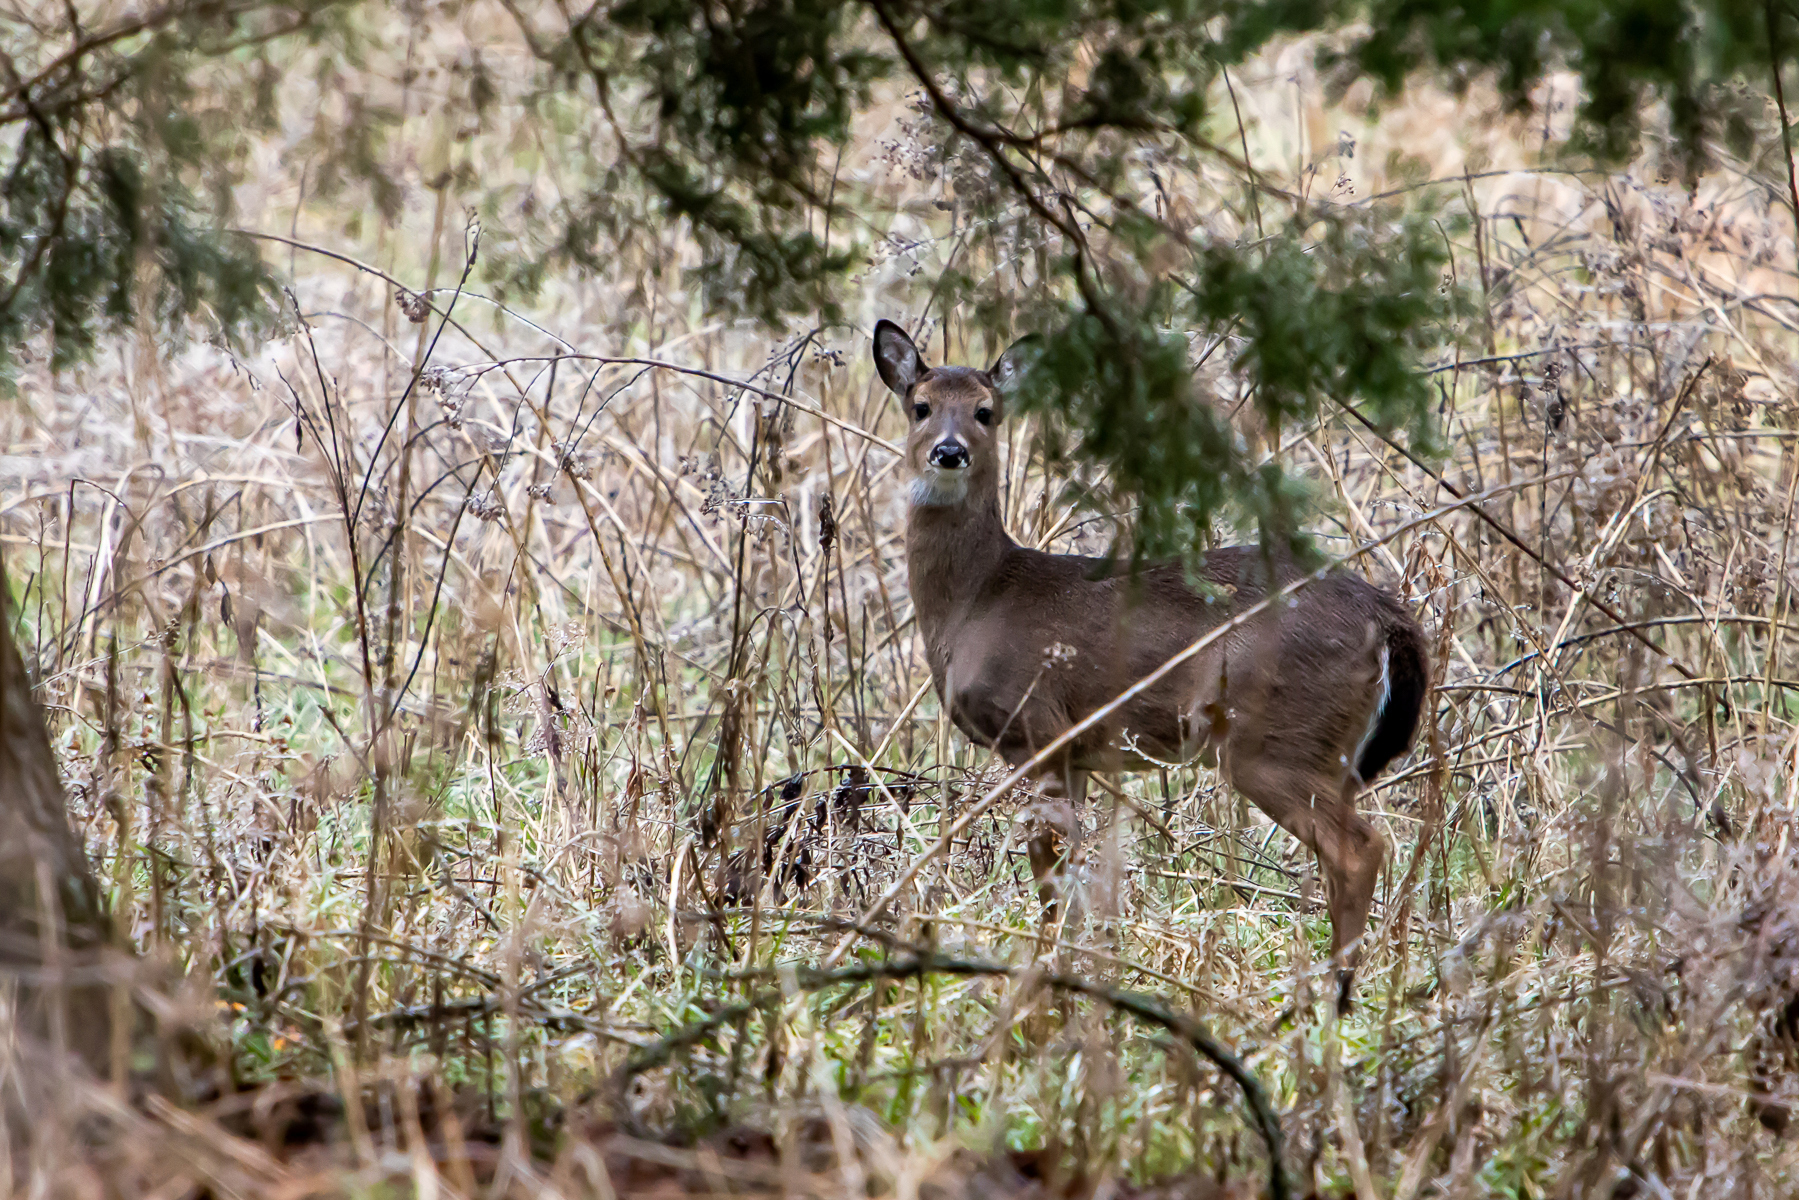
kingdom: Animalia
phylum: Chordata
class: Mammalia
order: Artiodactyla
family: Cervidae
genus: Odocoileus
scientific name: Odocoileus virginianus
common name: White-tailed deer
